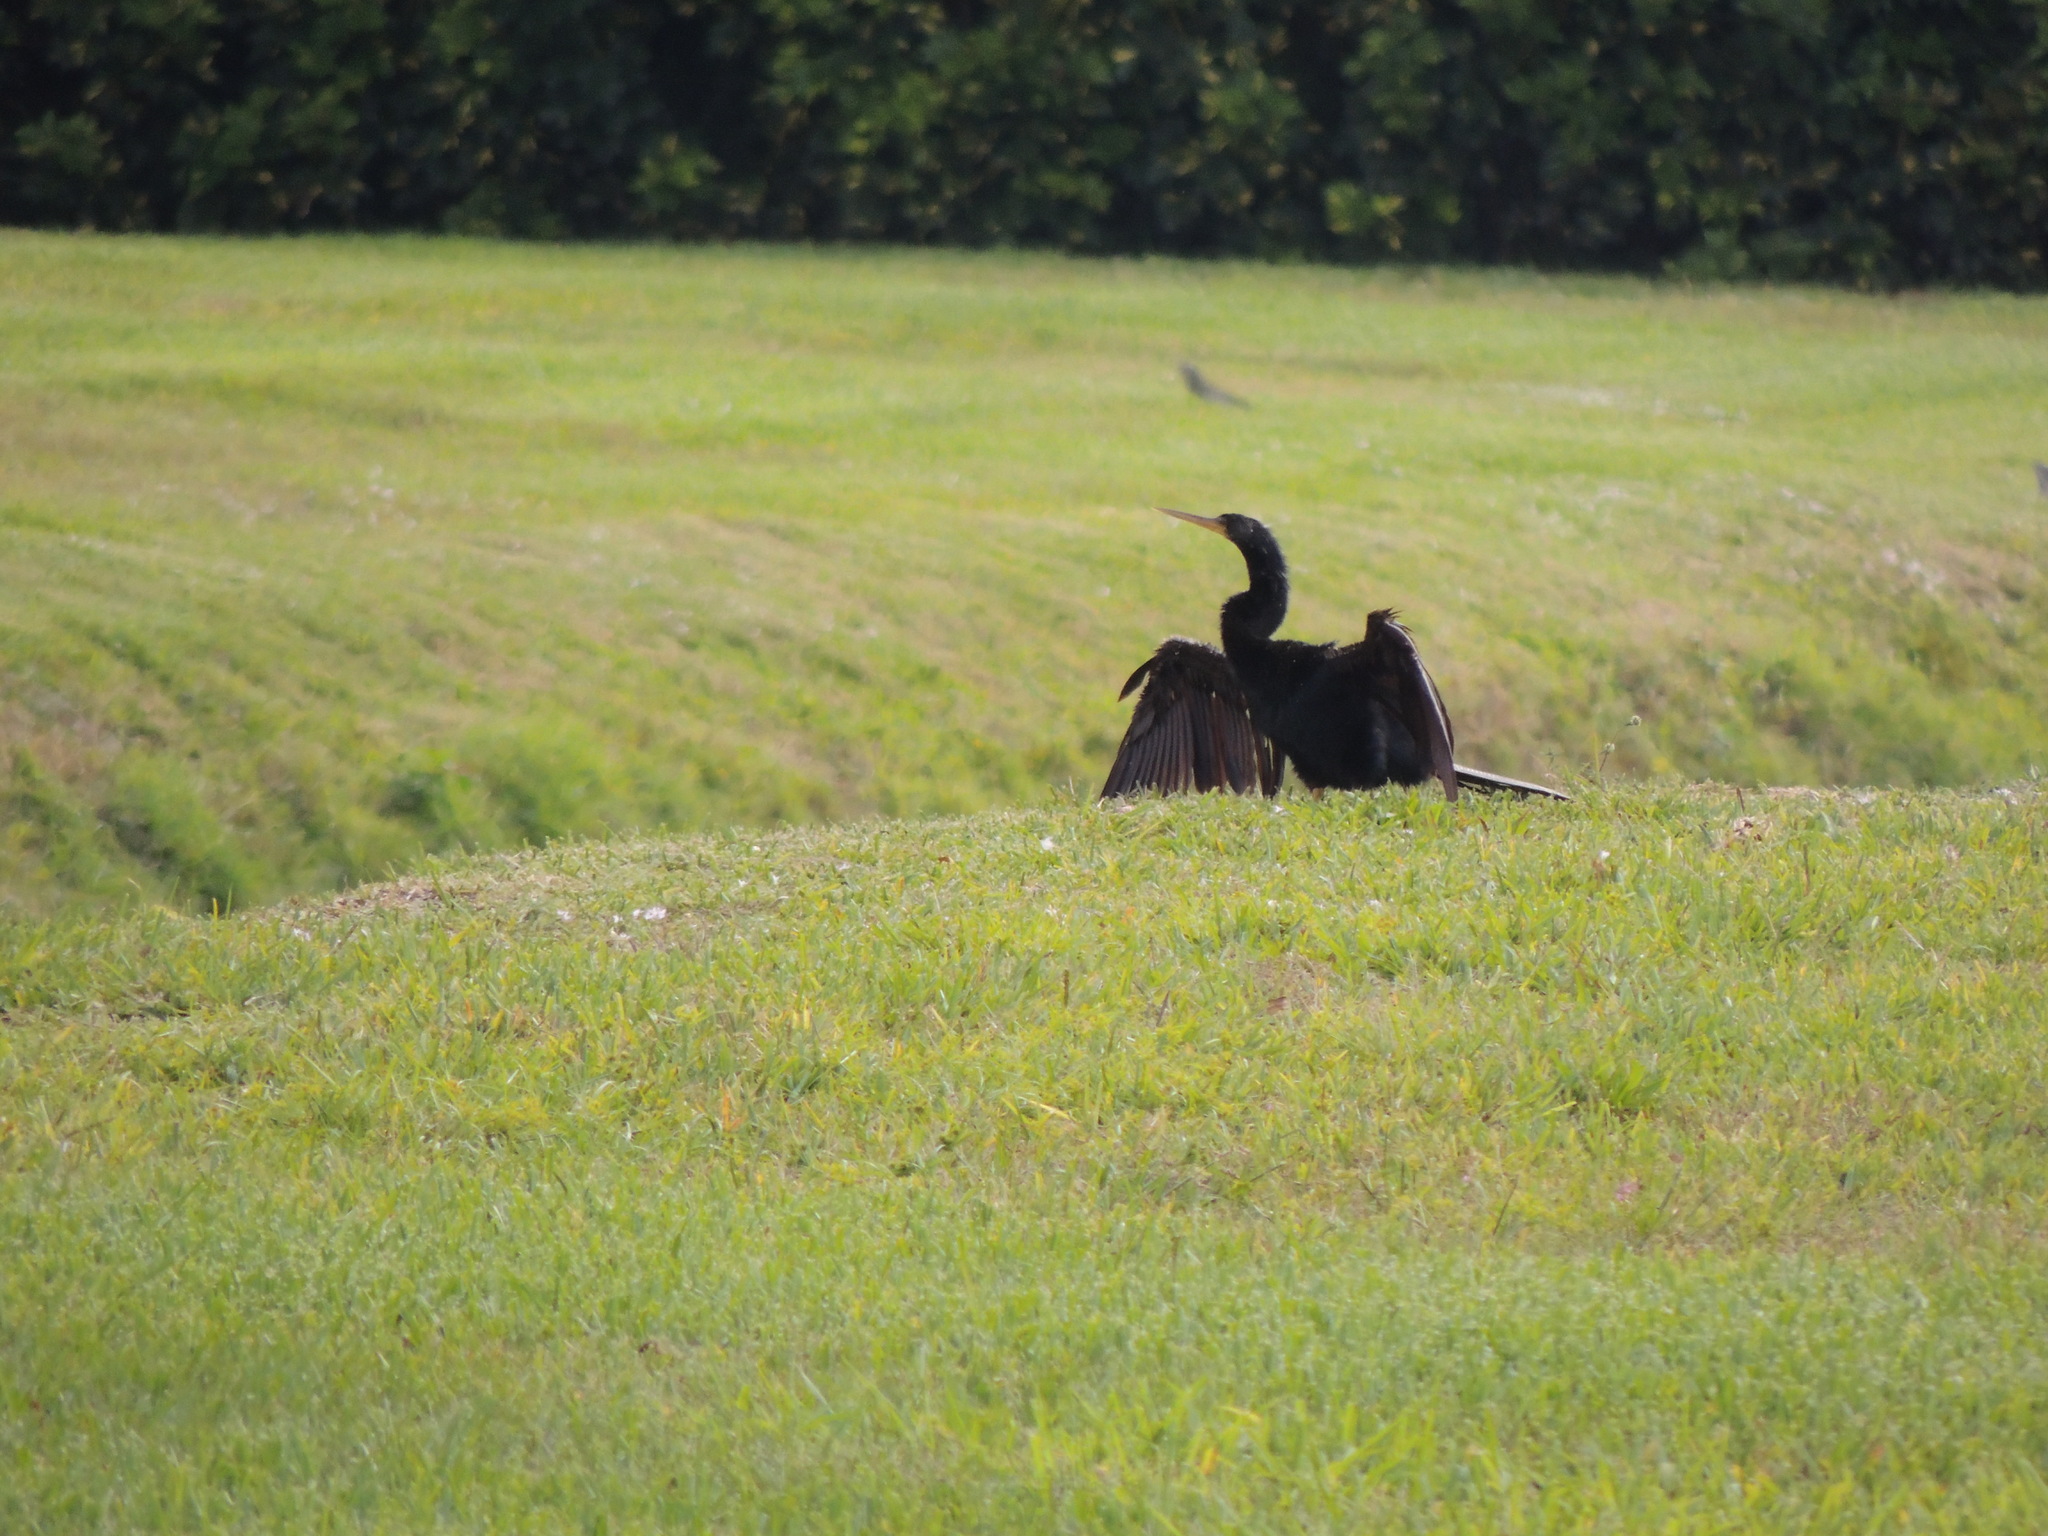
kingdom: Animalia
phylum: Chordata
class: Aves
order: Suliformes
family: Anhingidae
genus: Anhinga
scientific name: Anhinga anhinga
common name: Anhinga
